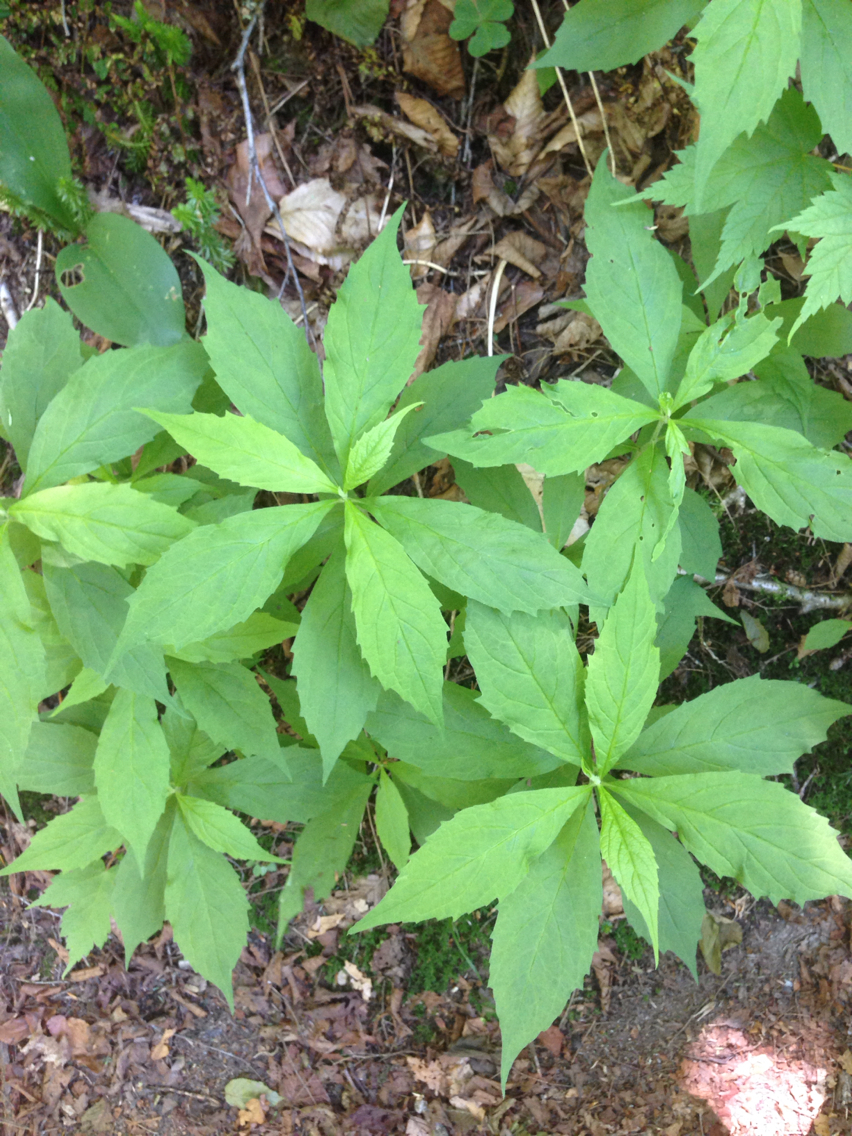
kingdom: Plantae
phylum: Tracheophyta
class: Magnoliopsida
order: Asterales
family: Asteraceae
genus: Oclemena
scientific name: Oclemena acuminata
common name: Mountain aster
